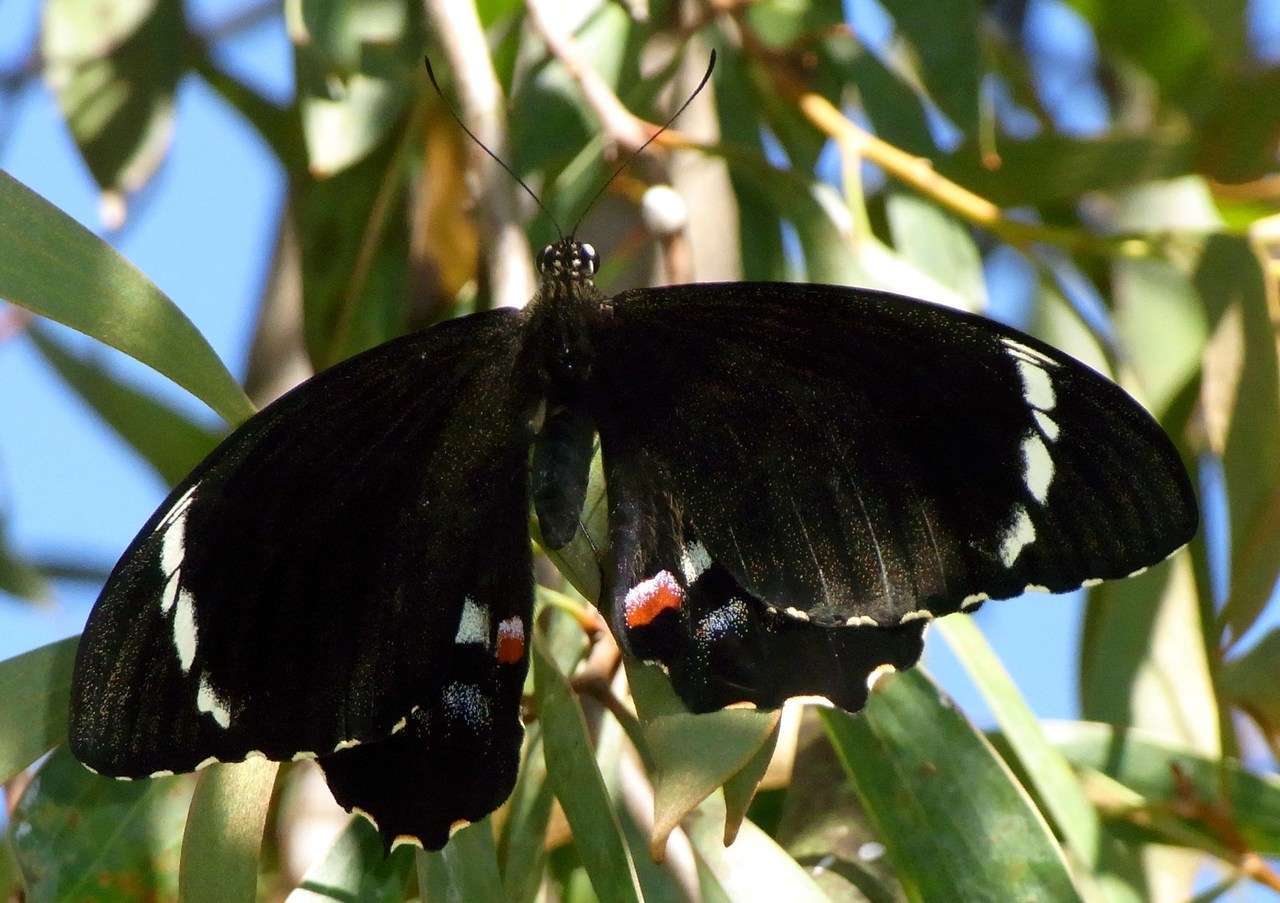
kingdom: Animalia
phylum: Arthropoda
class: Insecta
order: Lepidoptera
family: Papilionidae
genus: Papilio
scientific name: Papilio aegeus
